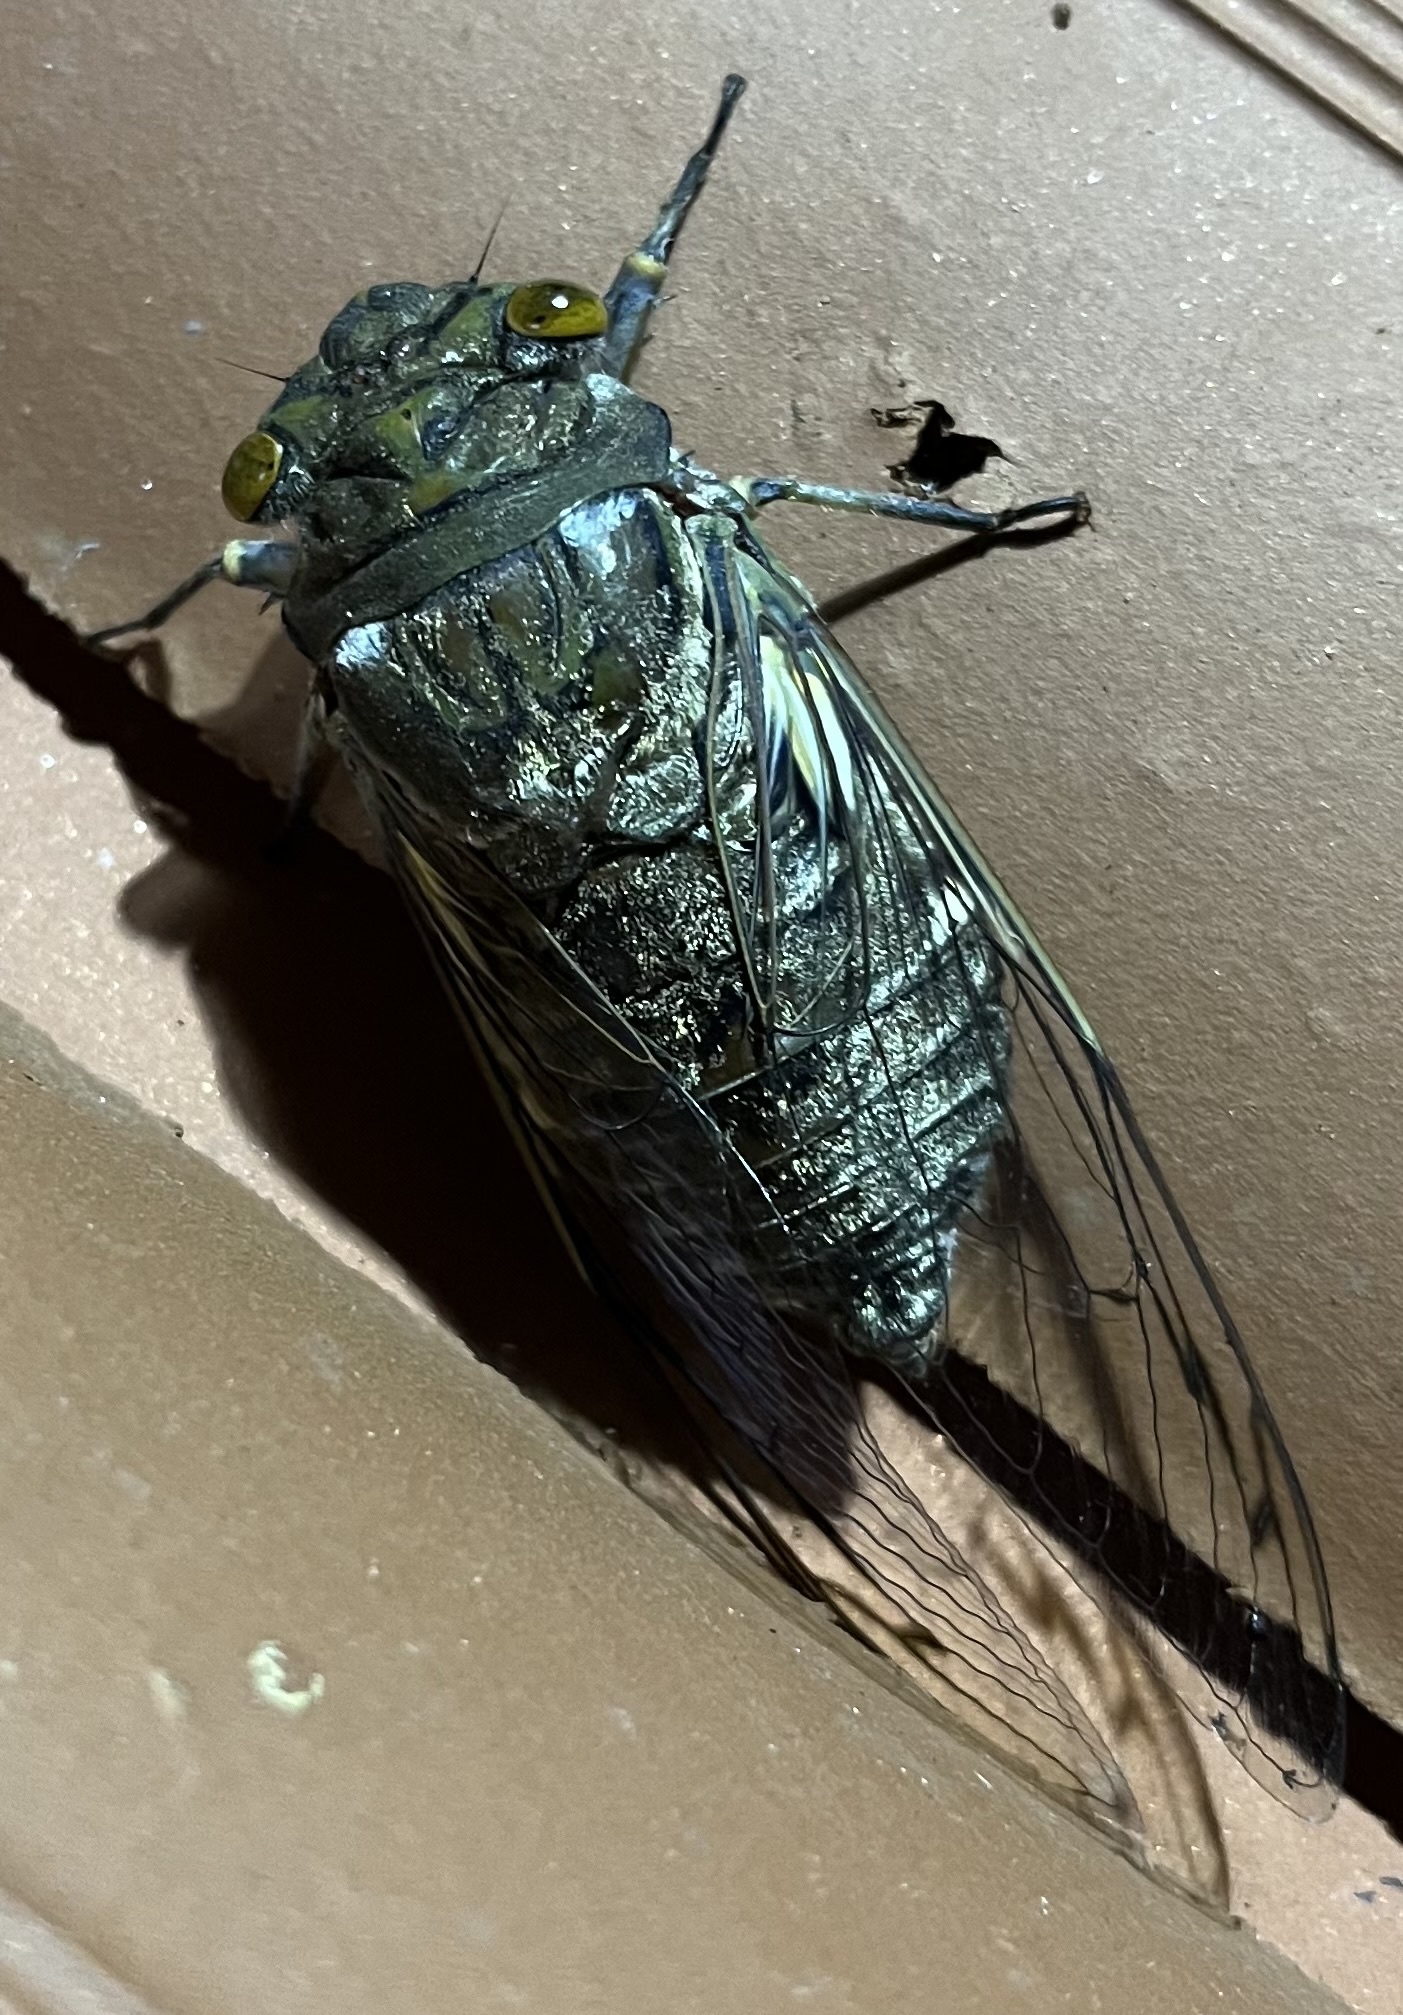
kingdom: Animalia
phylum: Arthropoda
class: Insecta
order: Hemiptera
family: Cicadidae
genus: Quesada
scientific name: Quesada gigas
